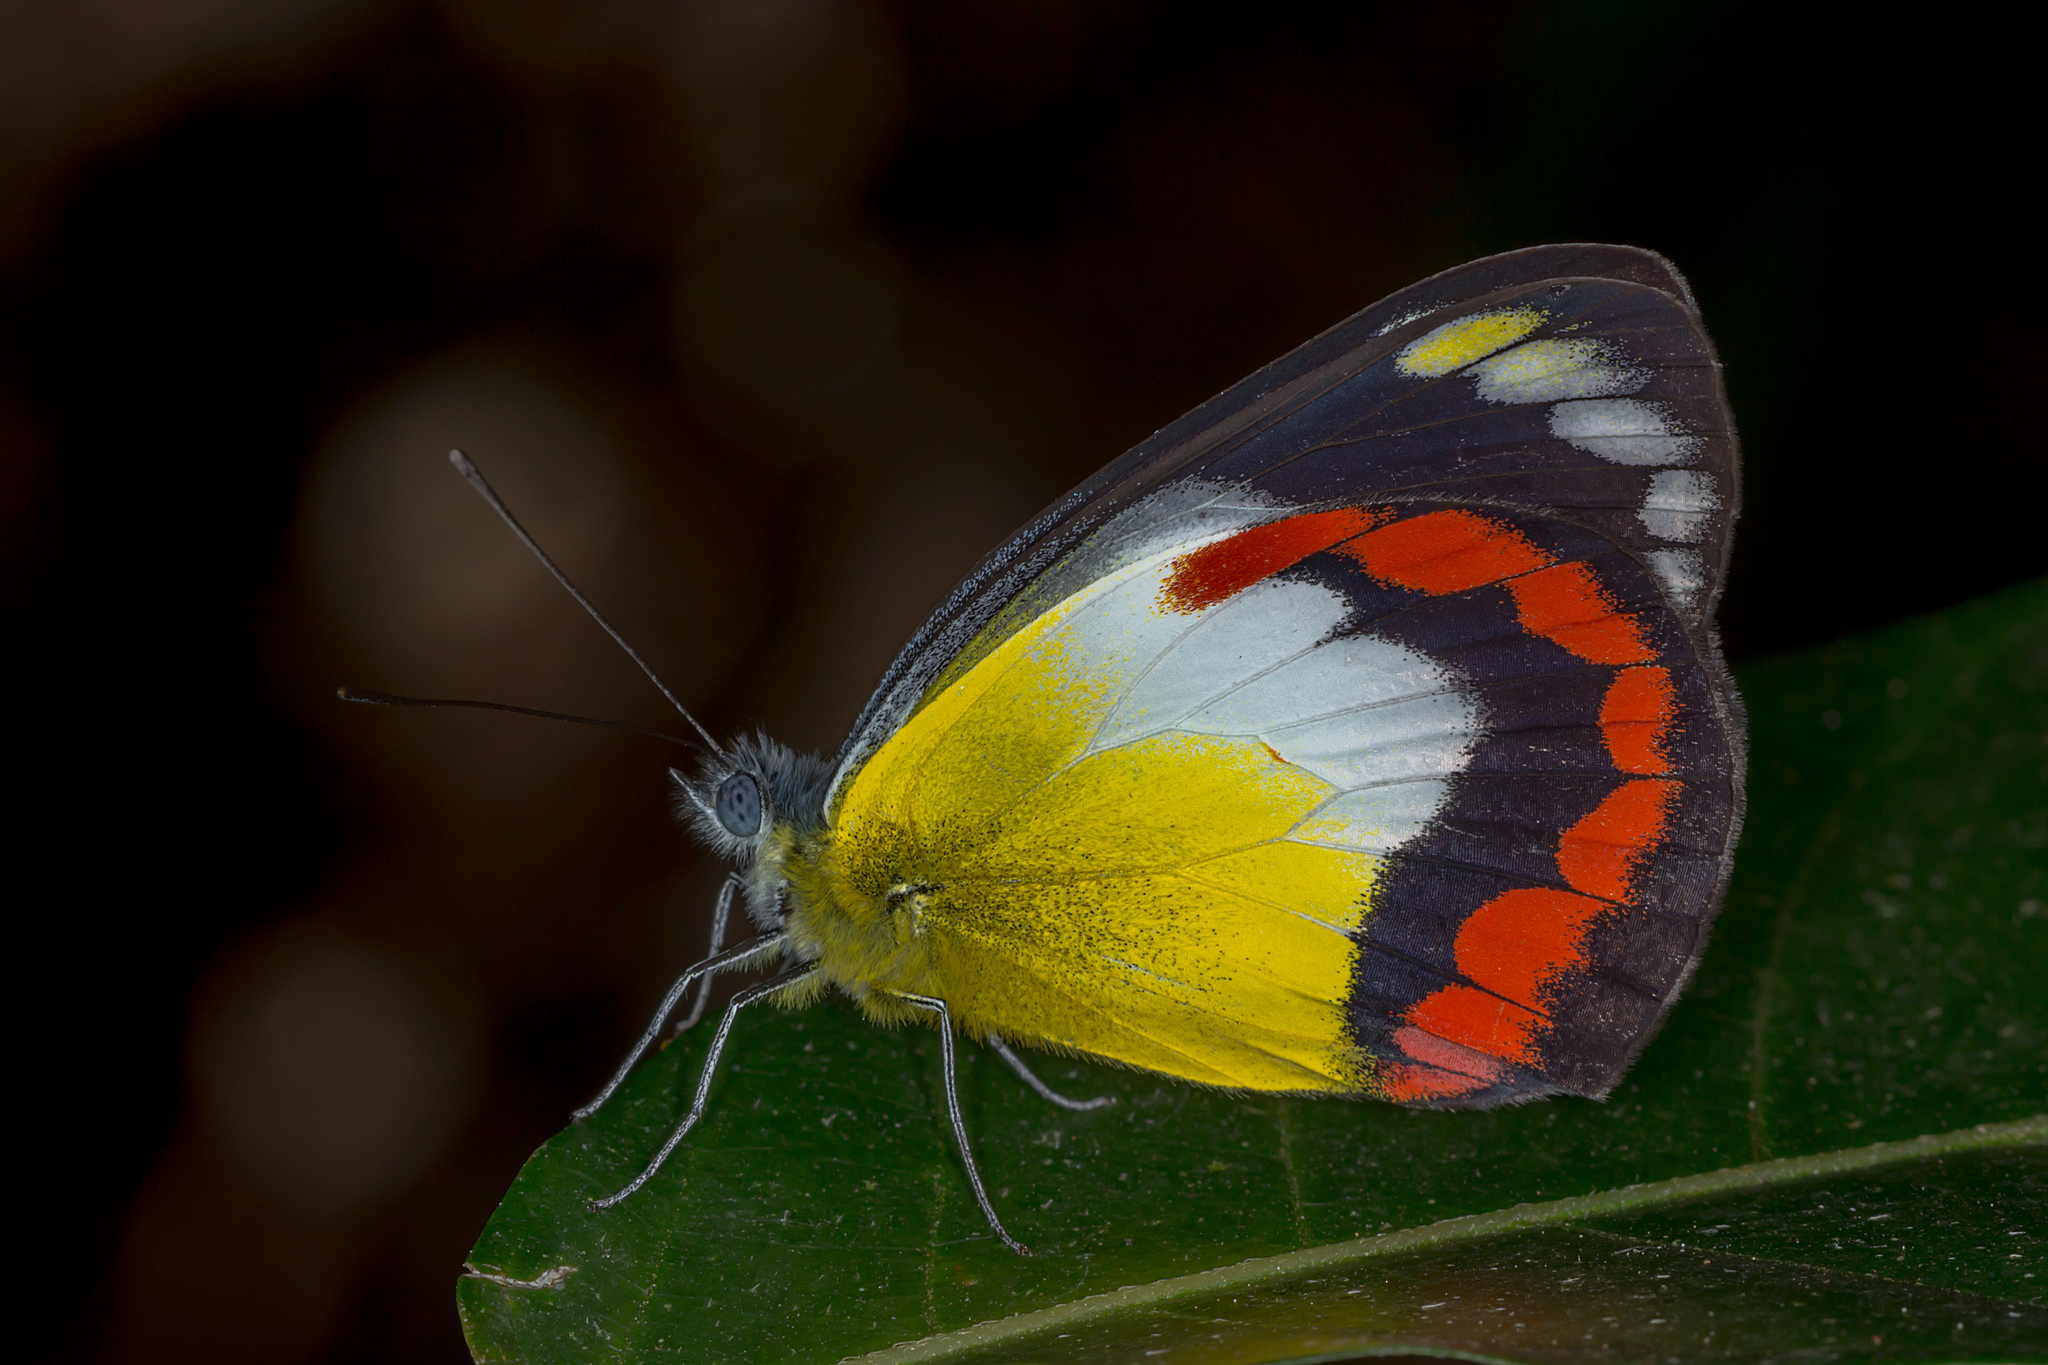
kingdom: Animalia
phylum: Arthropoda
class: Insecta
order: Lepidoptera
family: Pieridae
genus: Delias
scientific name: Delias mysis
